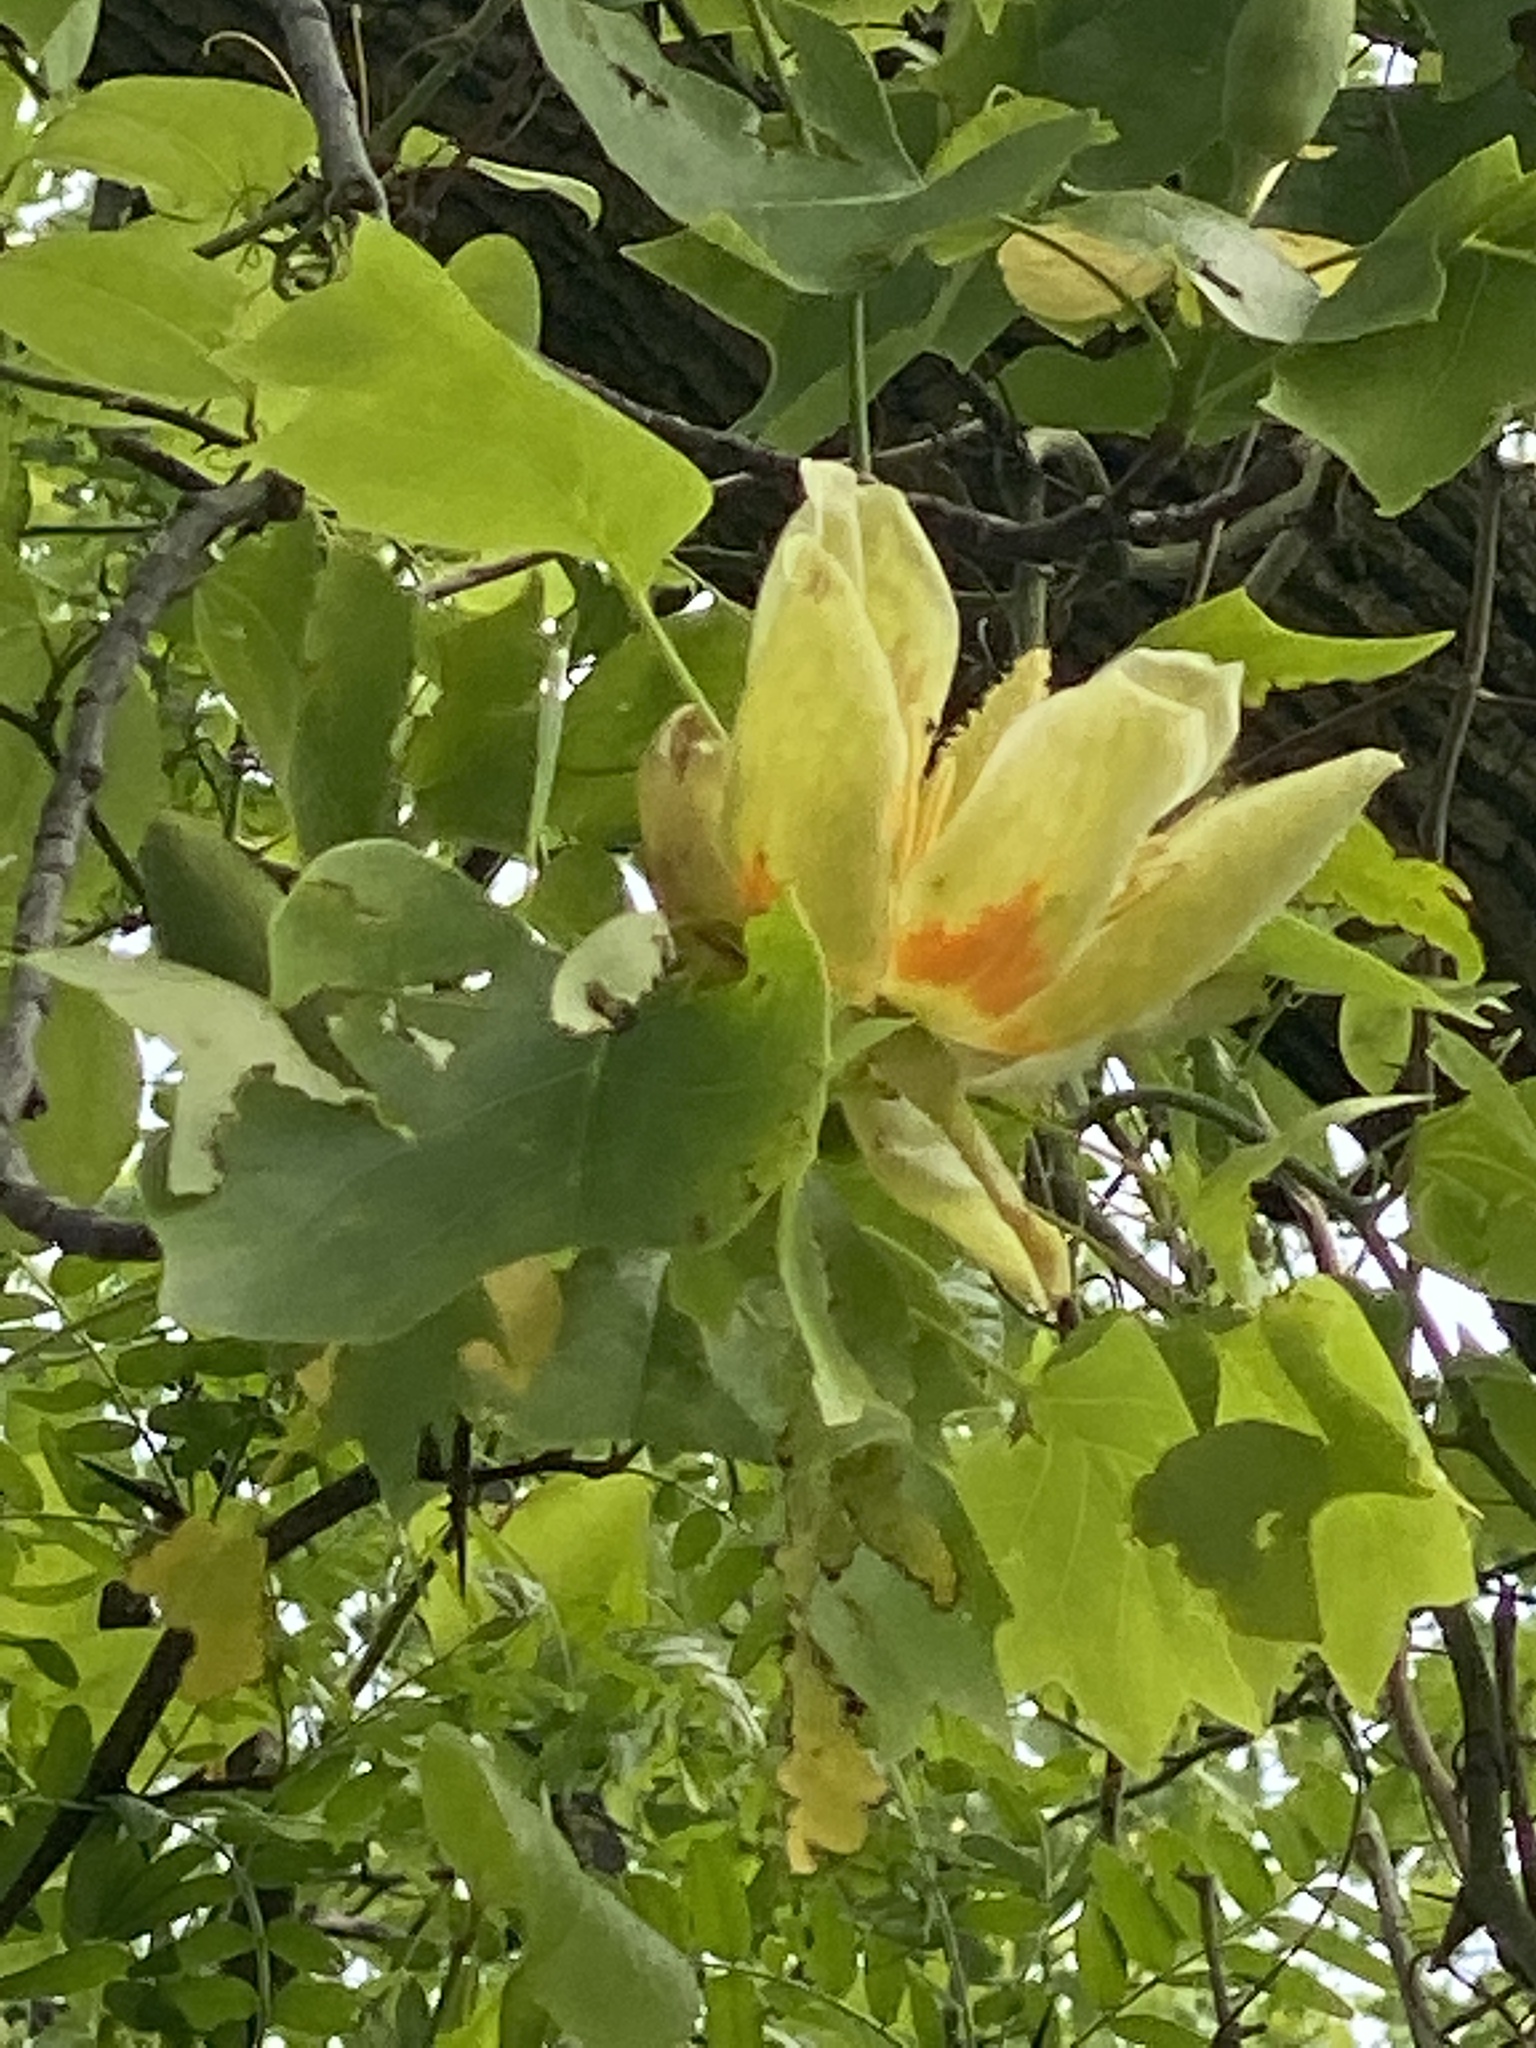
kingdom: Plantae
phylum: Tracheophyta
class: Magnoliopsida
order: Magnoliales
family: Magnoliaceae
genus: Liriodendron
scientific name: Liriodendron tulipifera
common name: Tulip tree
